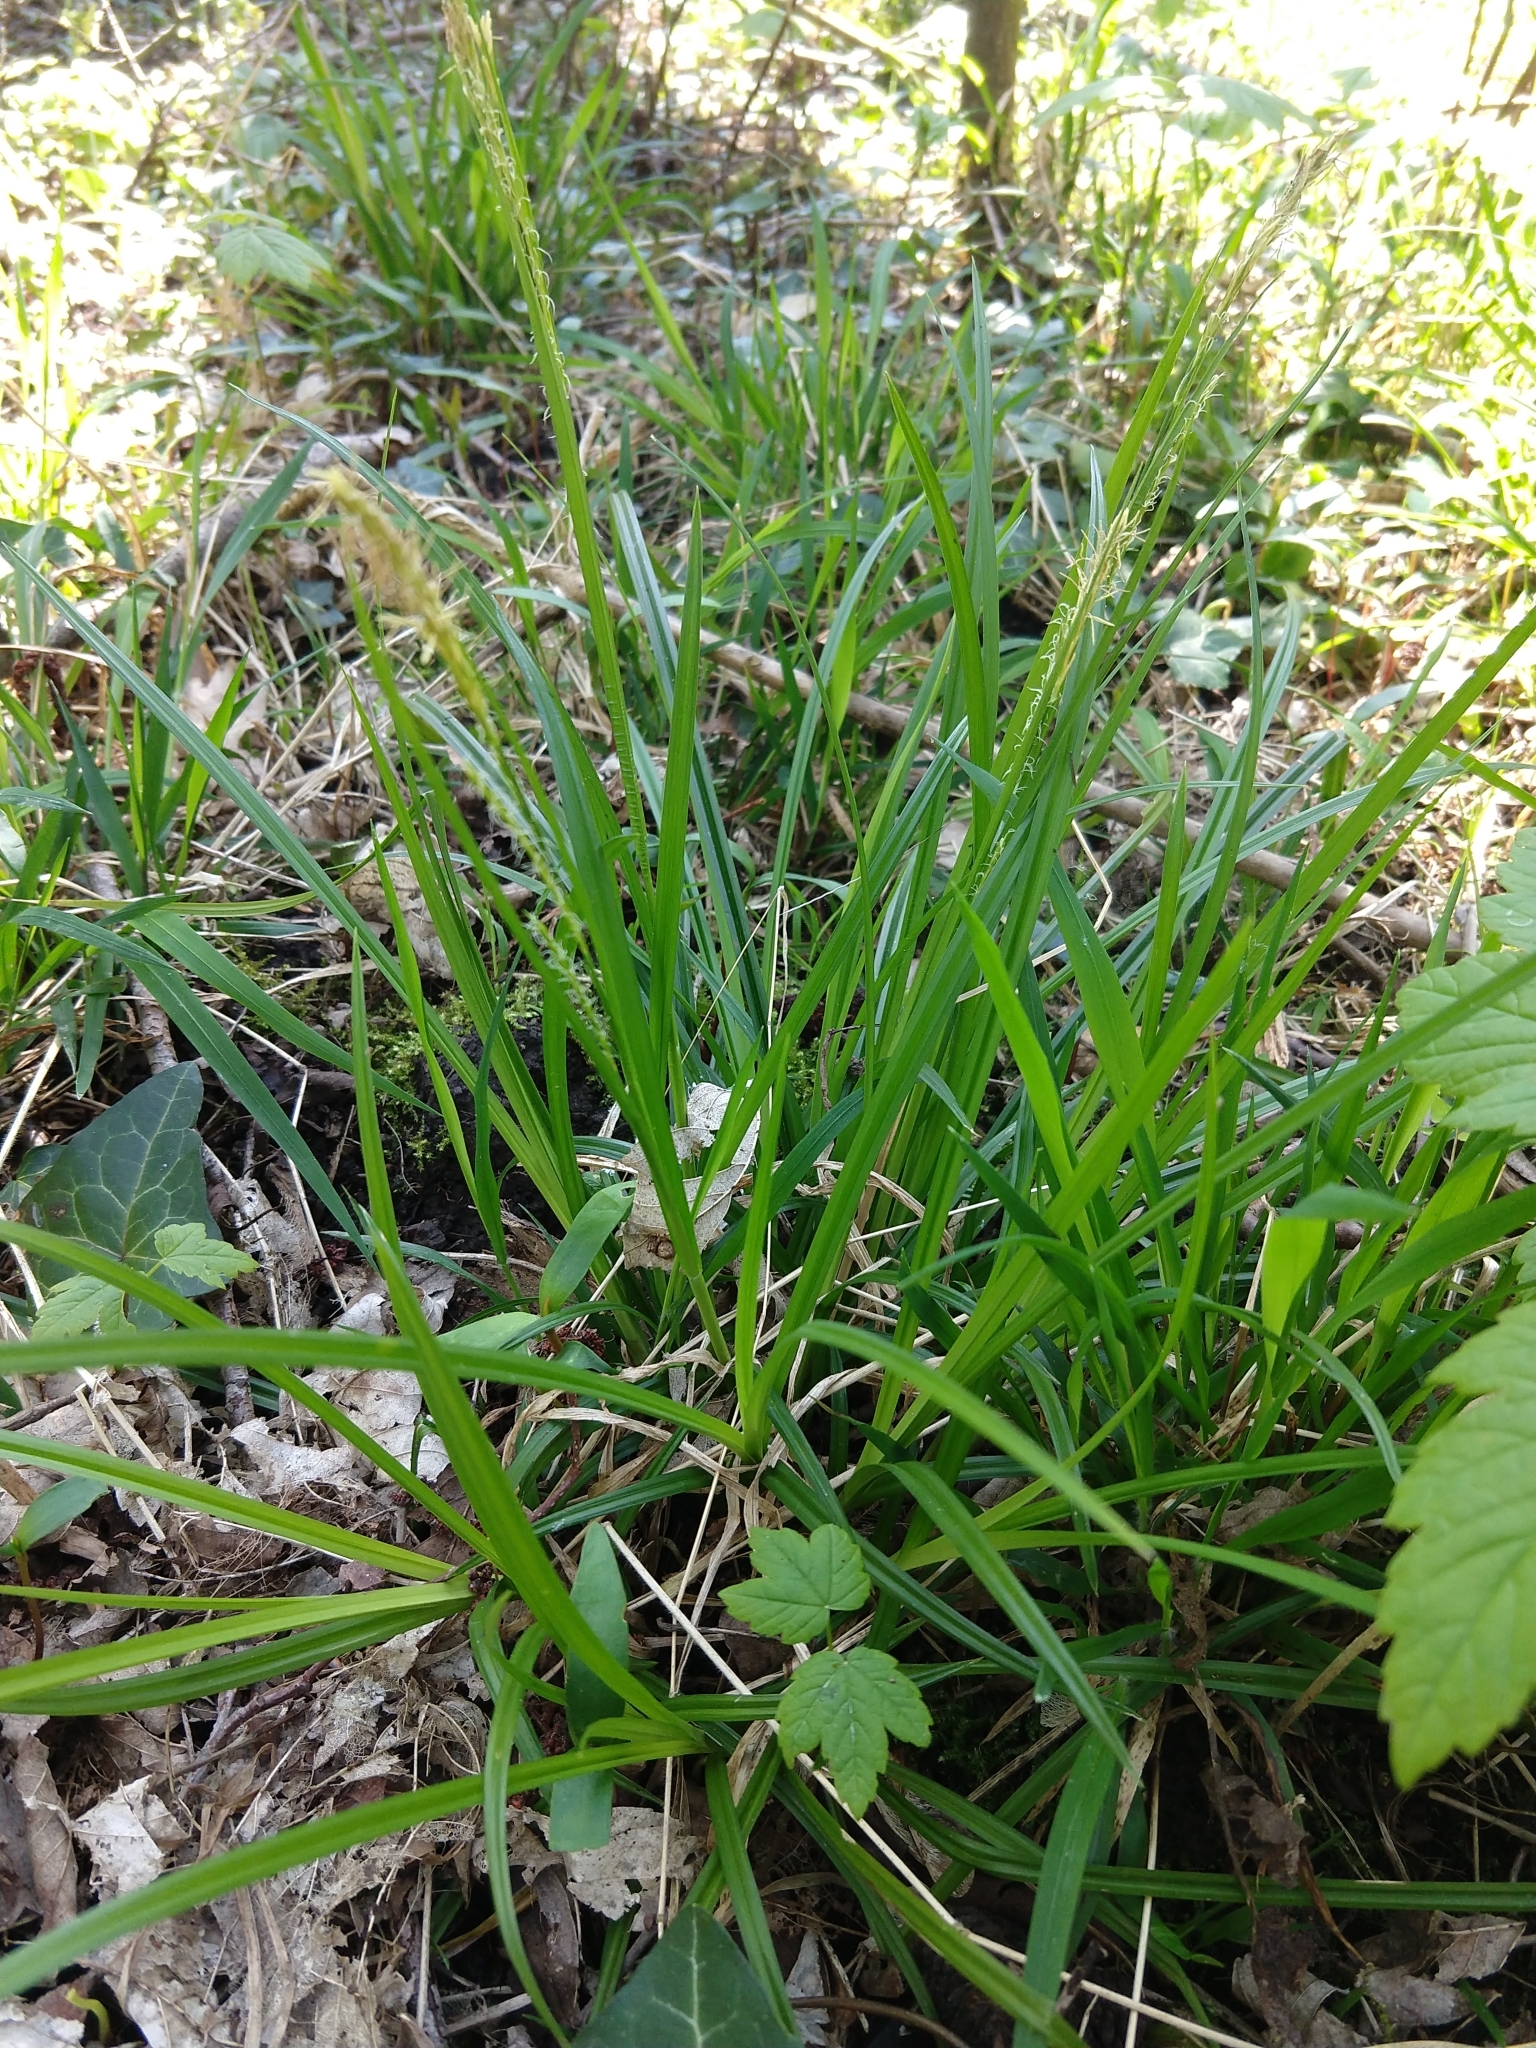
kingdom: Plantae
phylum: Tracheophyta
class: Liliopsida
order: Poales
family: Cyperaceae
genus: Carex
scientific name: Carex sylvatica
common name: Wood-sedge
